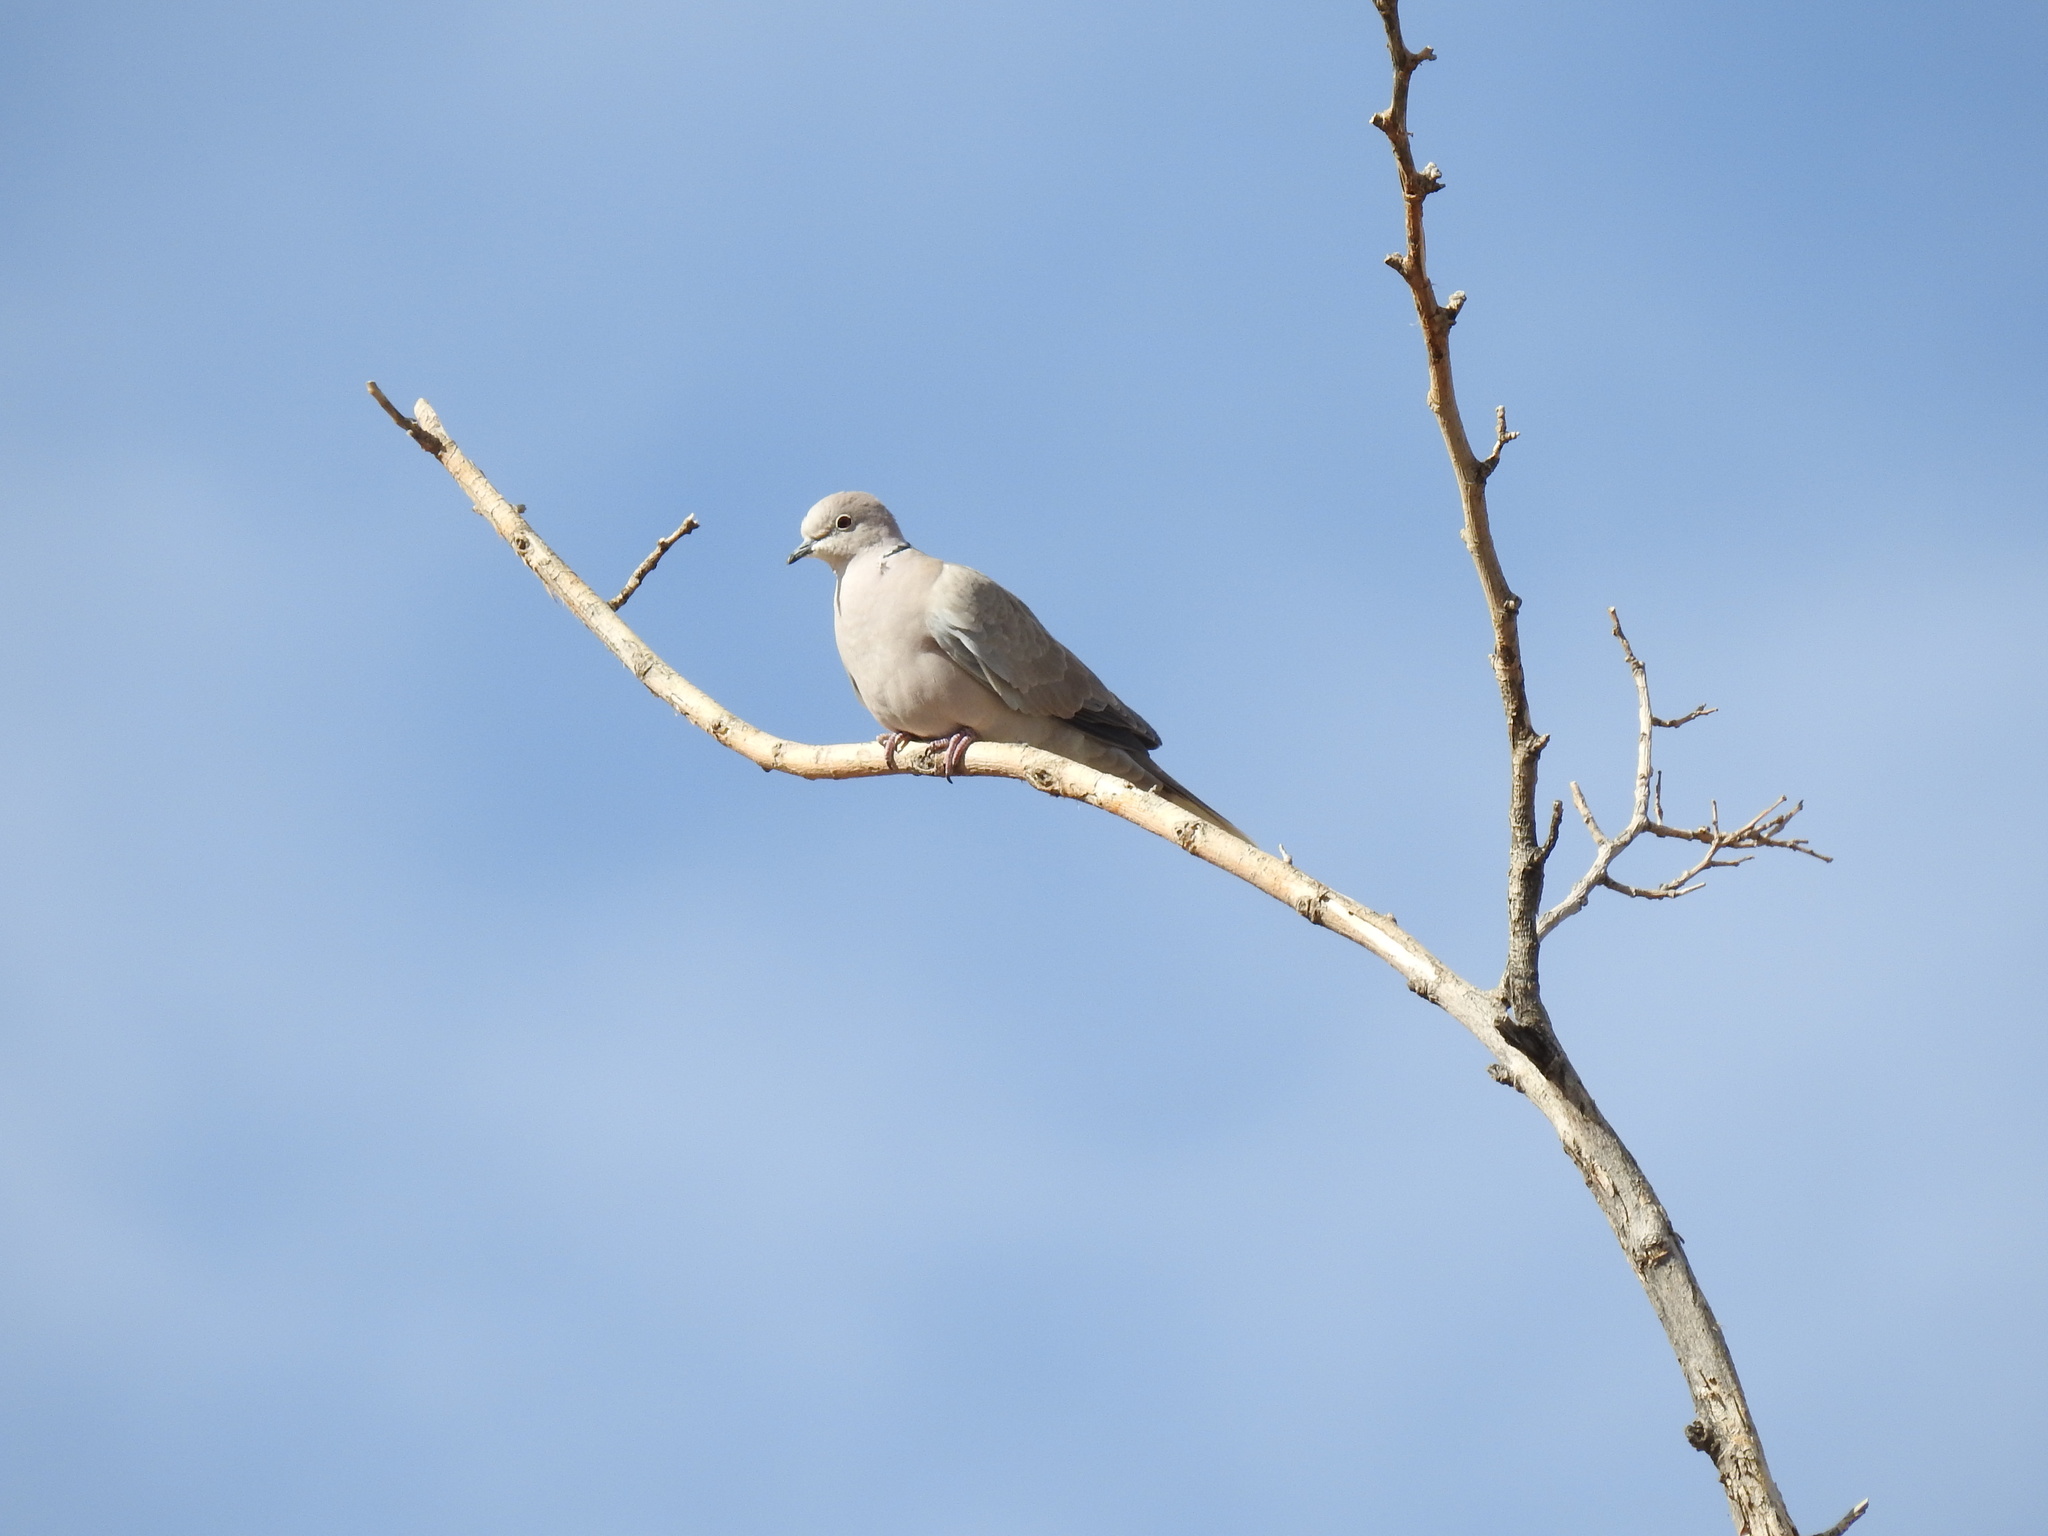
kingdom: Animalia
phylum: Chordata
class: Aves
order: Columbiformes
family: Columbidae
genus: Streptopelia
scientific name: Streptopelia decaocto
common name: Eurasian collared dove
